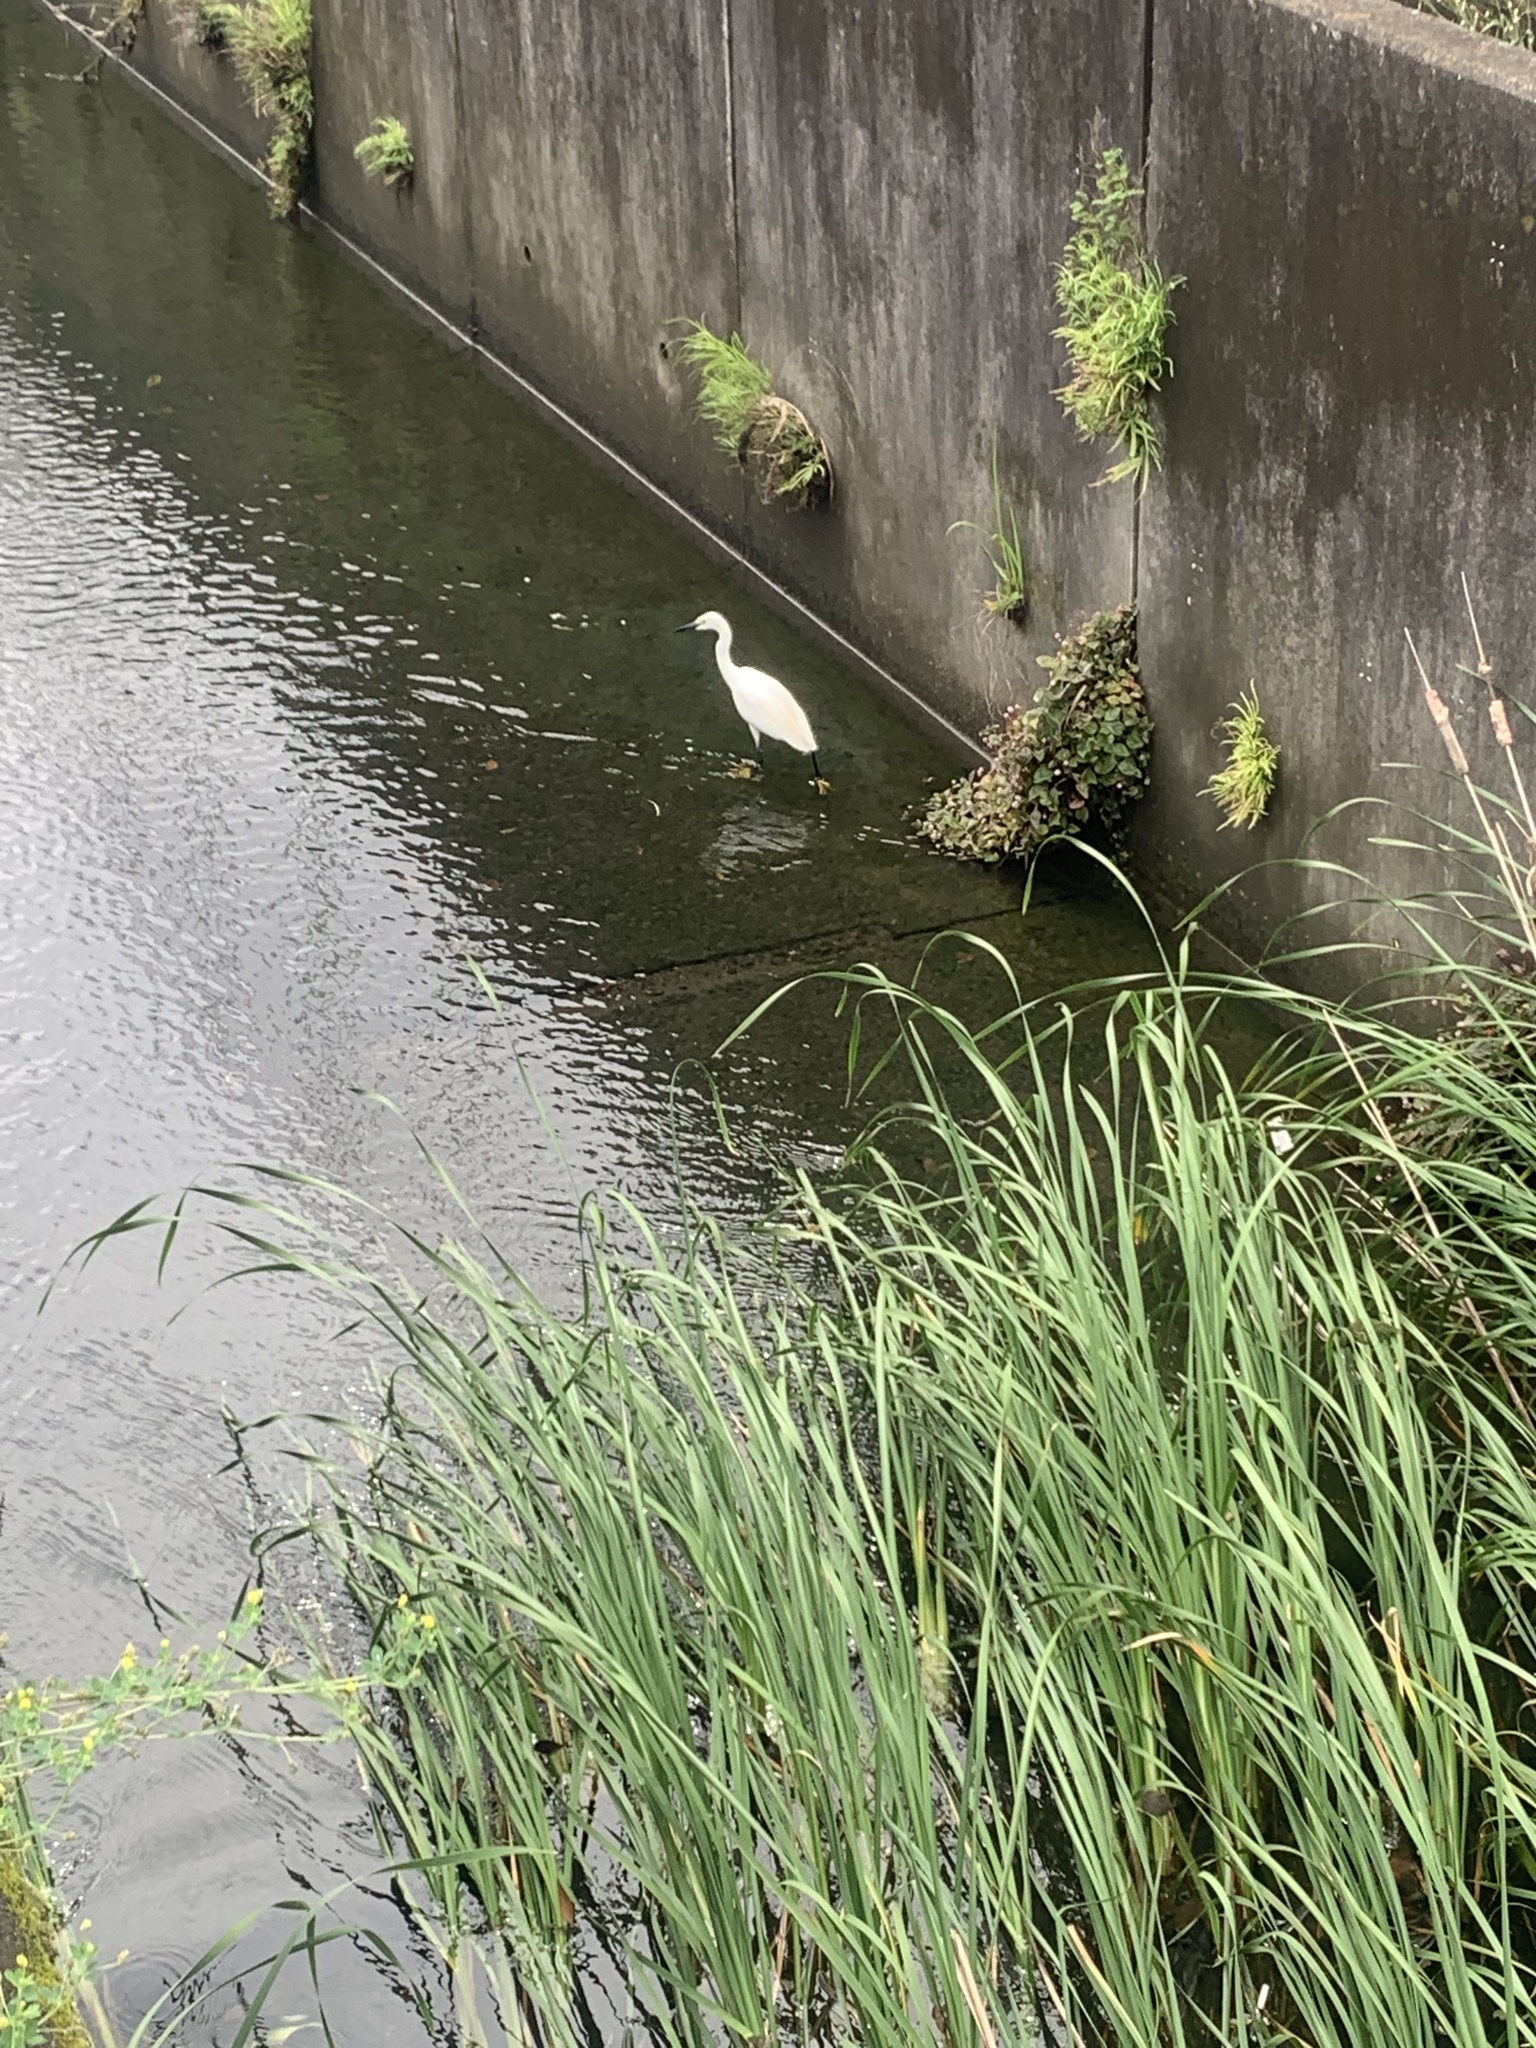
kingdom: Animalia
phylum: Chordata
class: Aves
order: Pelecaniformes
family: Ardeidae
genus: Egretta
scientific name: Egretta garzetta
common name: Little egret
